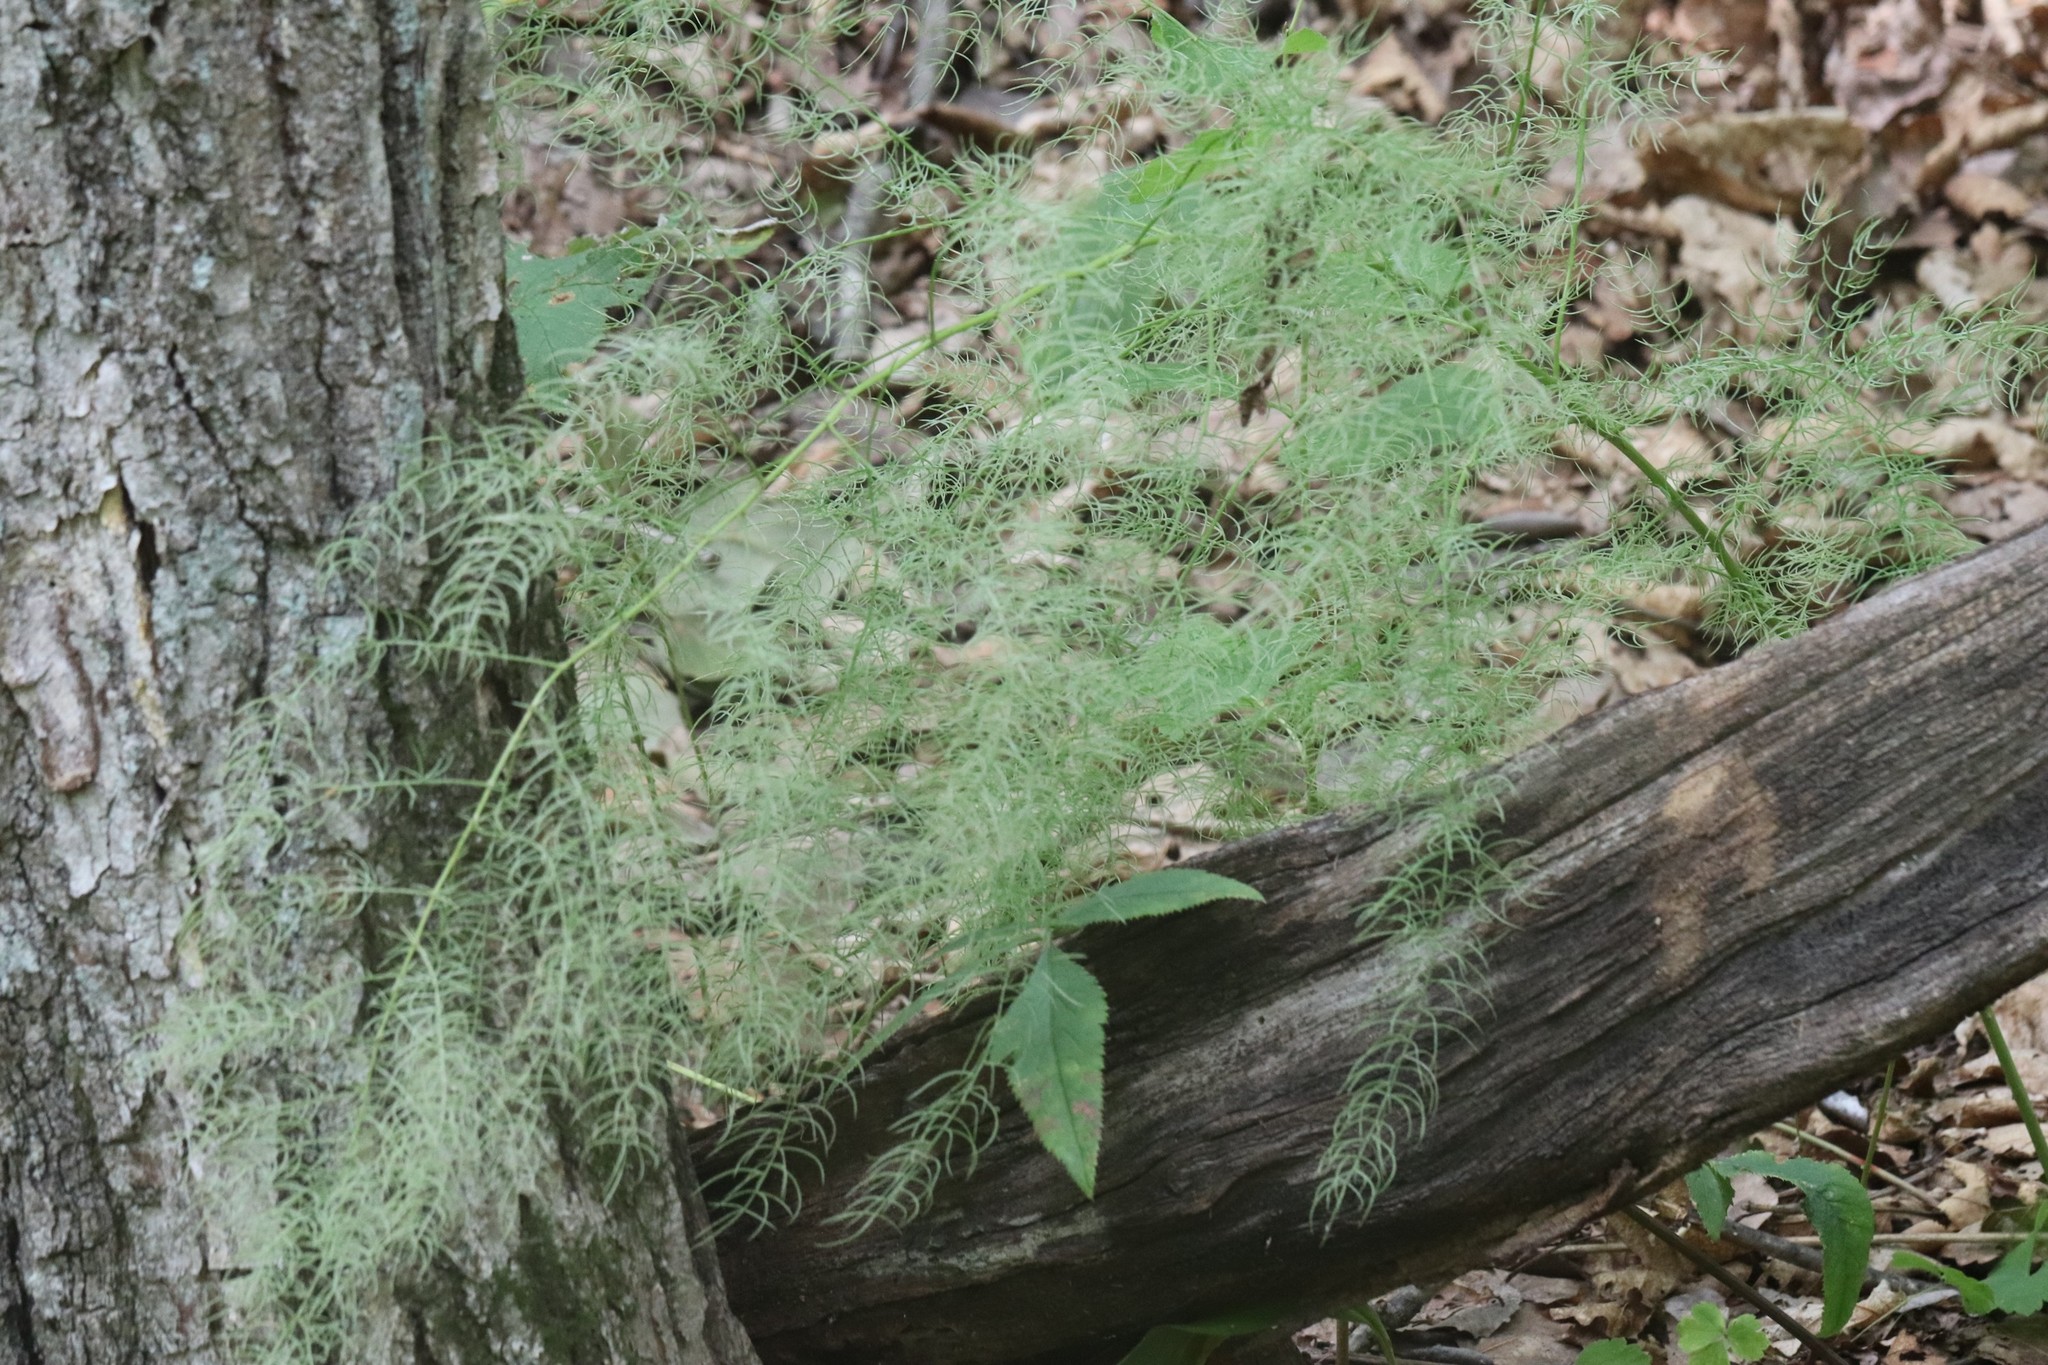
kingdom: Plantae
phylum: Tracheophyta
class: Liliopsida
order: Asparagales
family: Asparagaceae
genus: Asparagus
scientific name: Asparagus schoberioides
